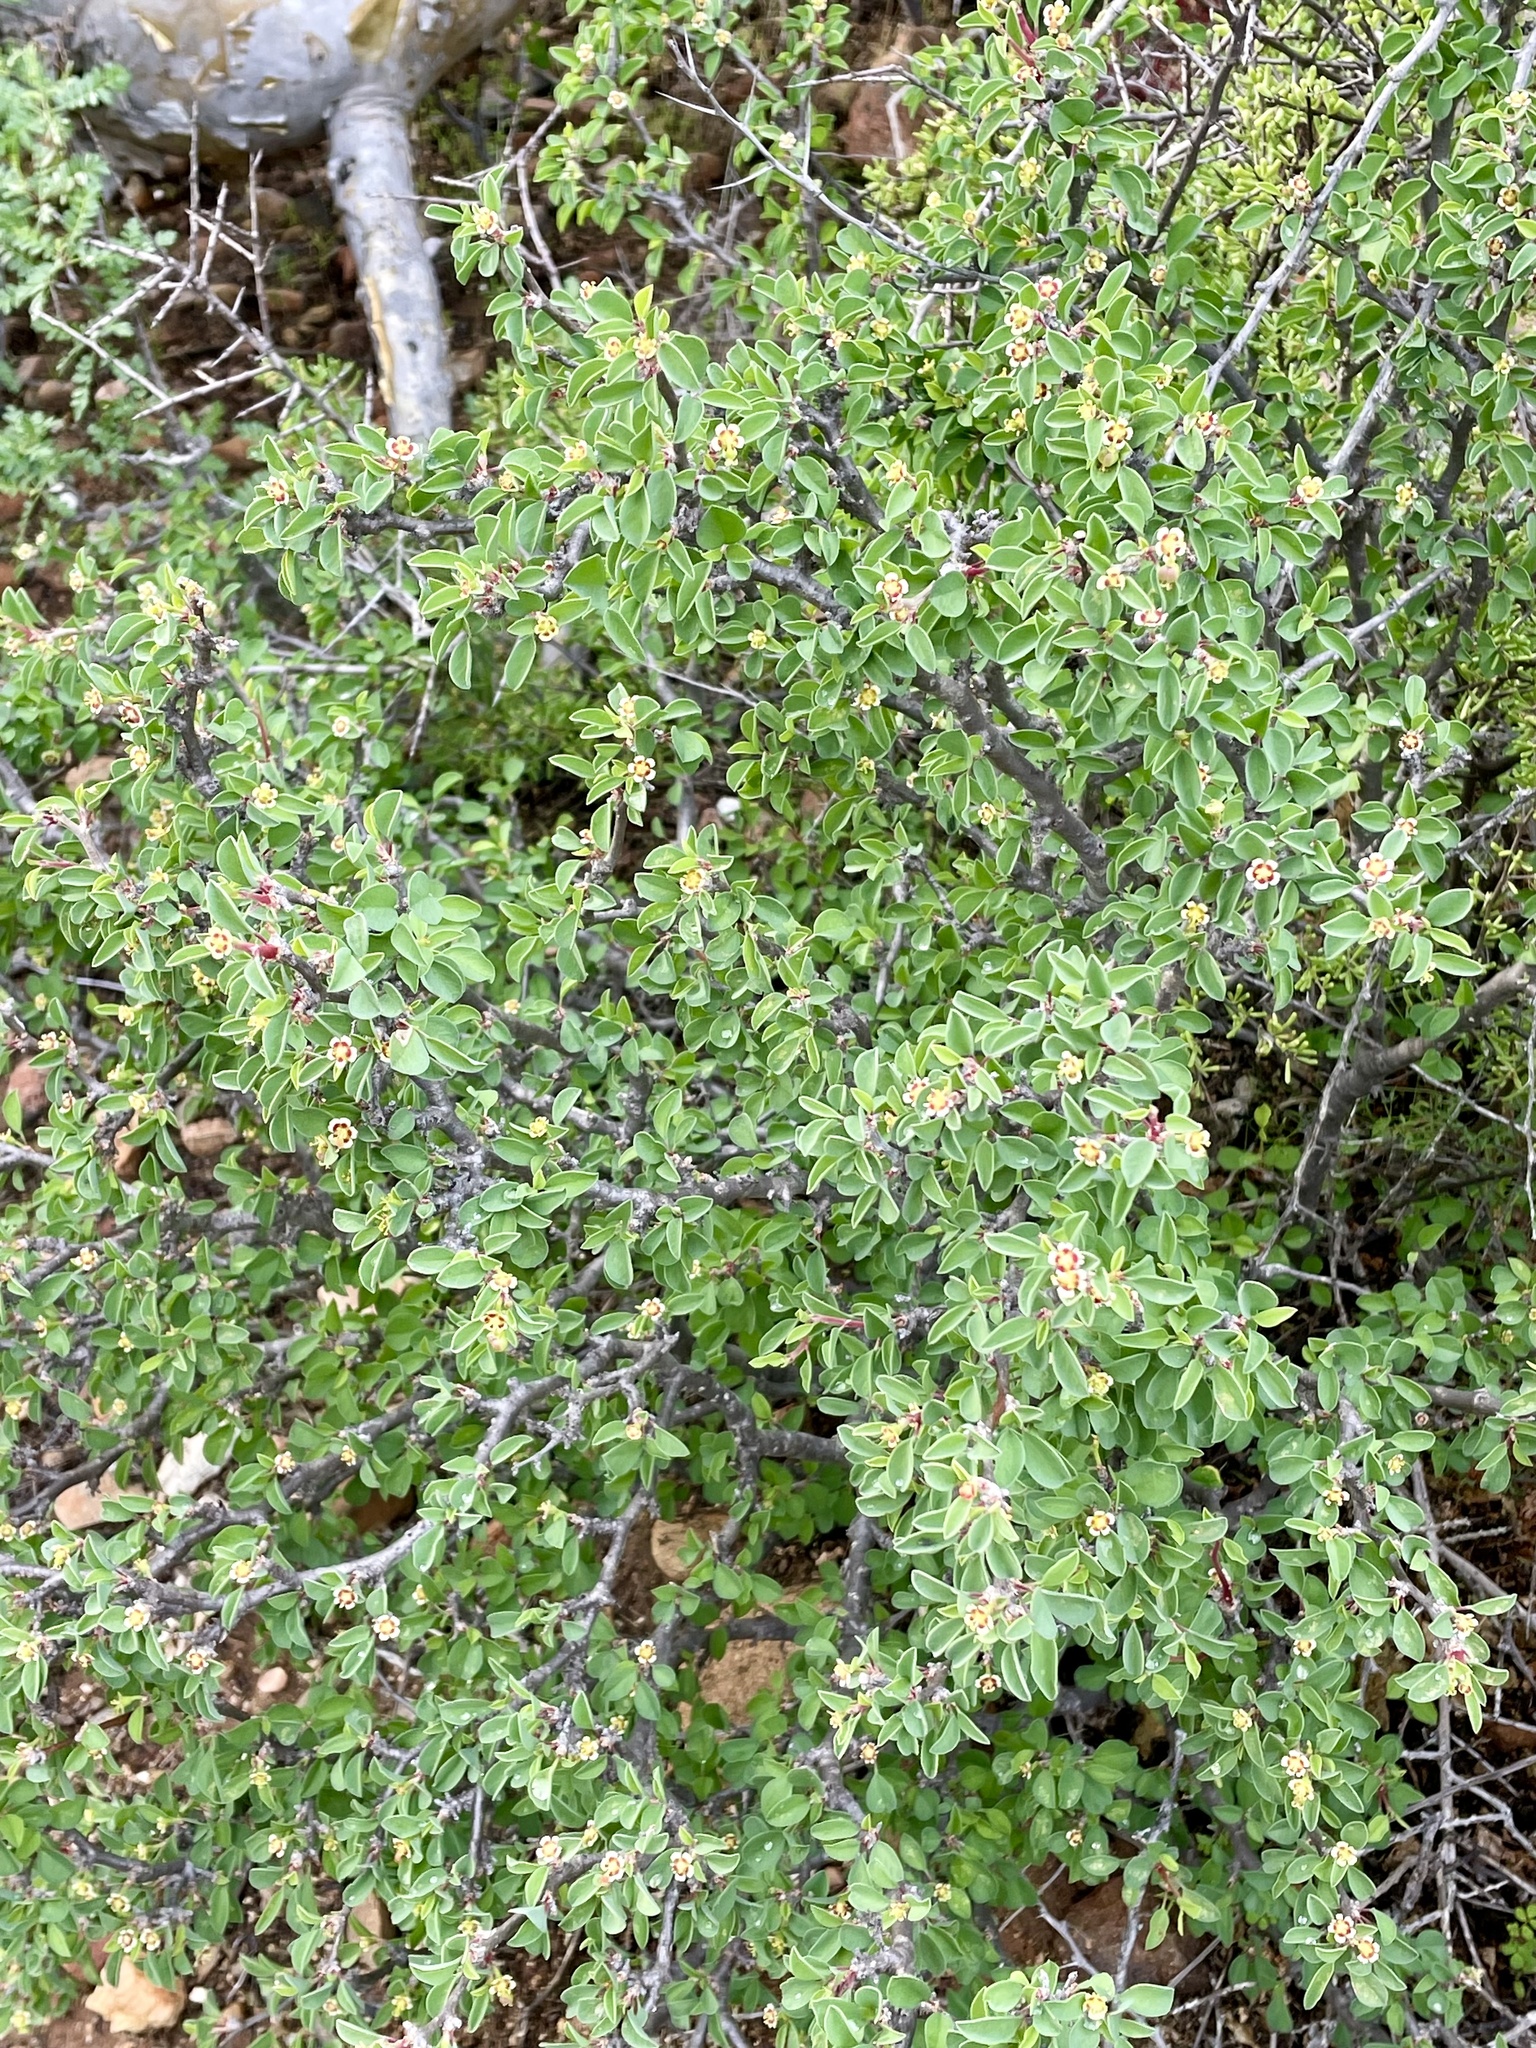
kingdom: Plantae
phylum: Tracheophyta
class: Magnoliopsida
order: Malpighiales
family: Euphorbiaceae
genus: Euphorbia
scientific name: Euphorbia misera
